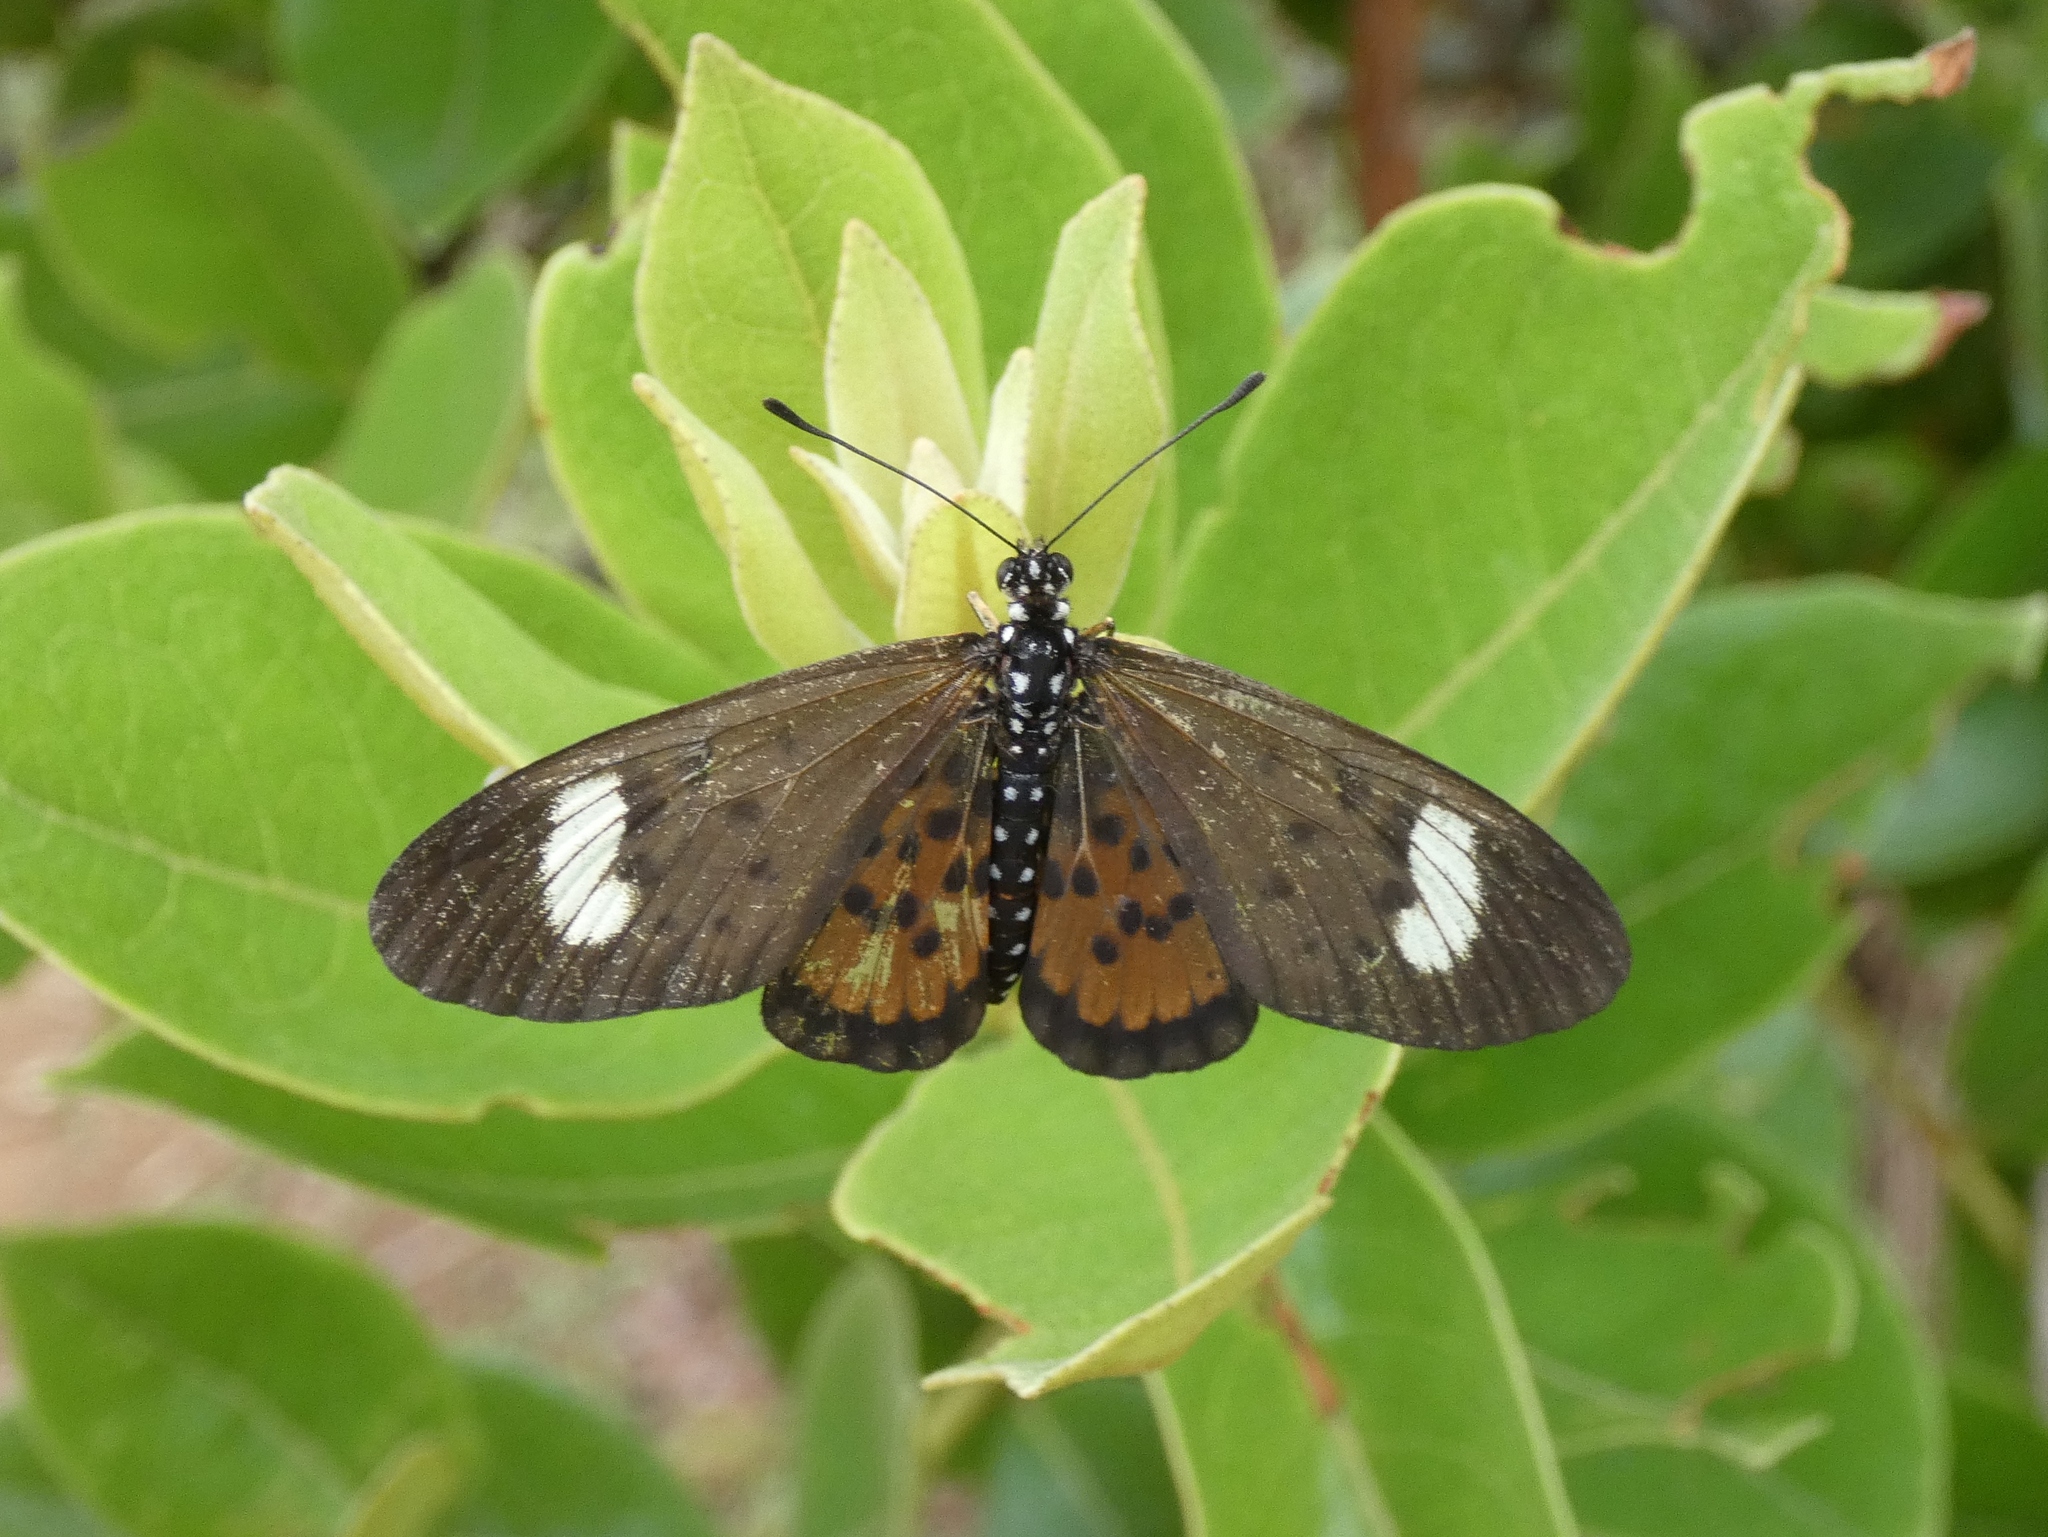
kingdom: Animalia
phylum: Arthropoda
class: Insecta
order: Lepidoptera
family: Nymphalidae
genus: Rubraea
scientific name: Rubraea
